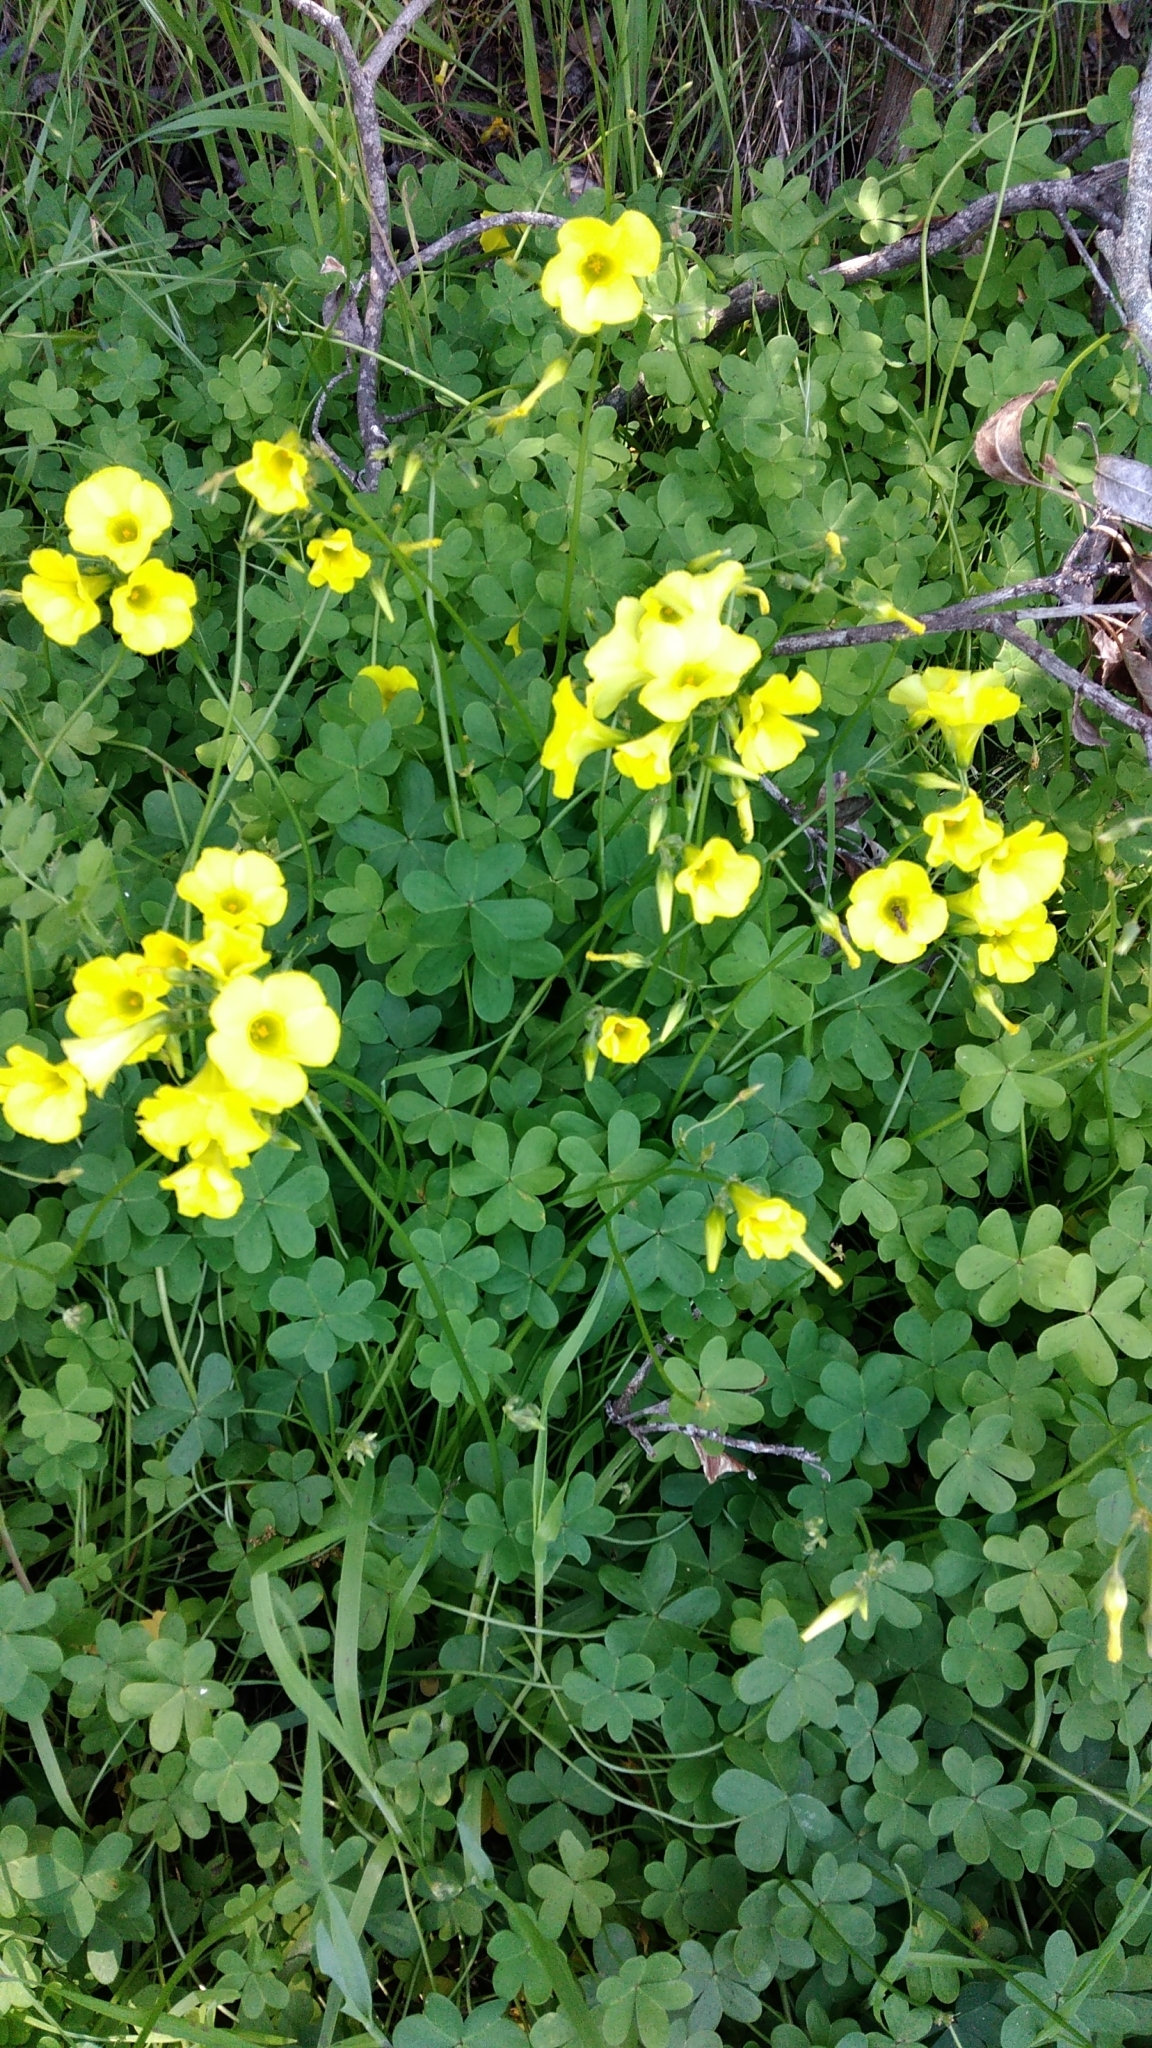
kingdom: Plantae
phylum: Tracheophyta
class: Magnoliopsida
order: Oxalidales
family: Oxalidaceae
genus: Oxalis
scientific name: Oxalis pes-caprae
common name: Bermuda-buttercup
